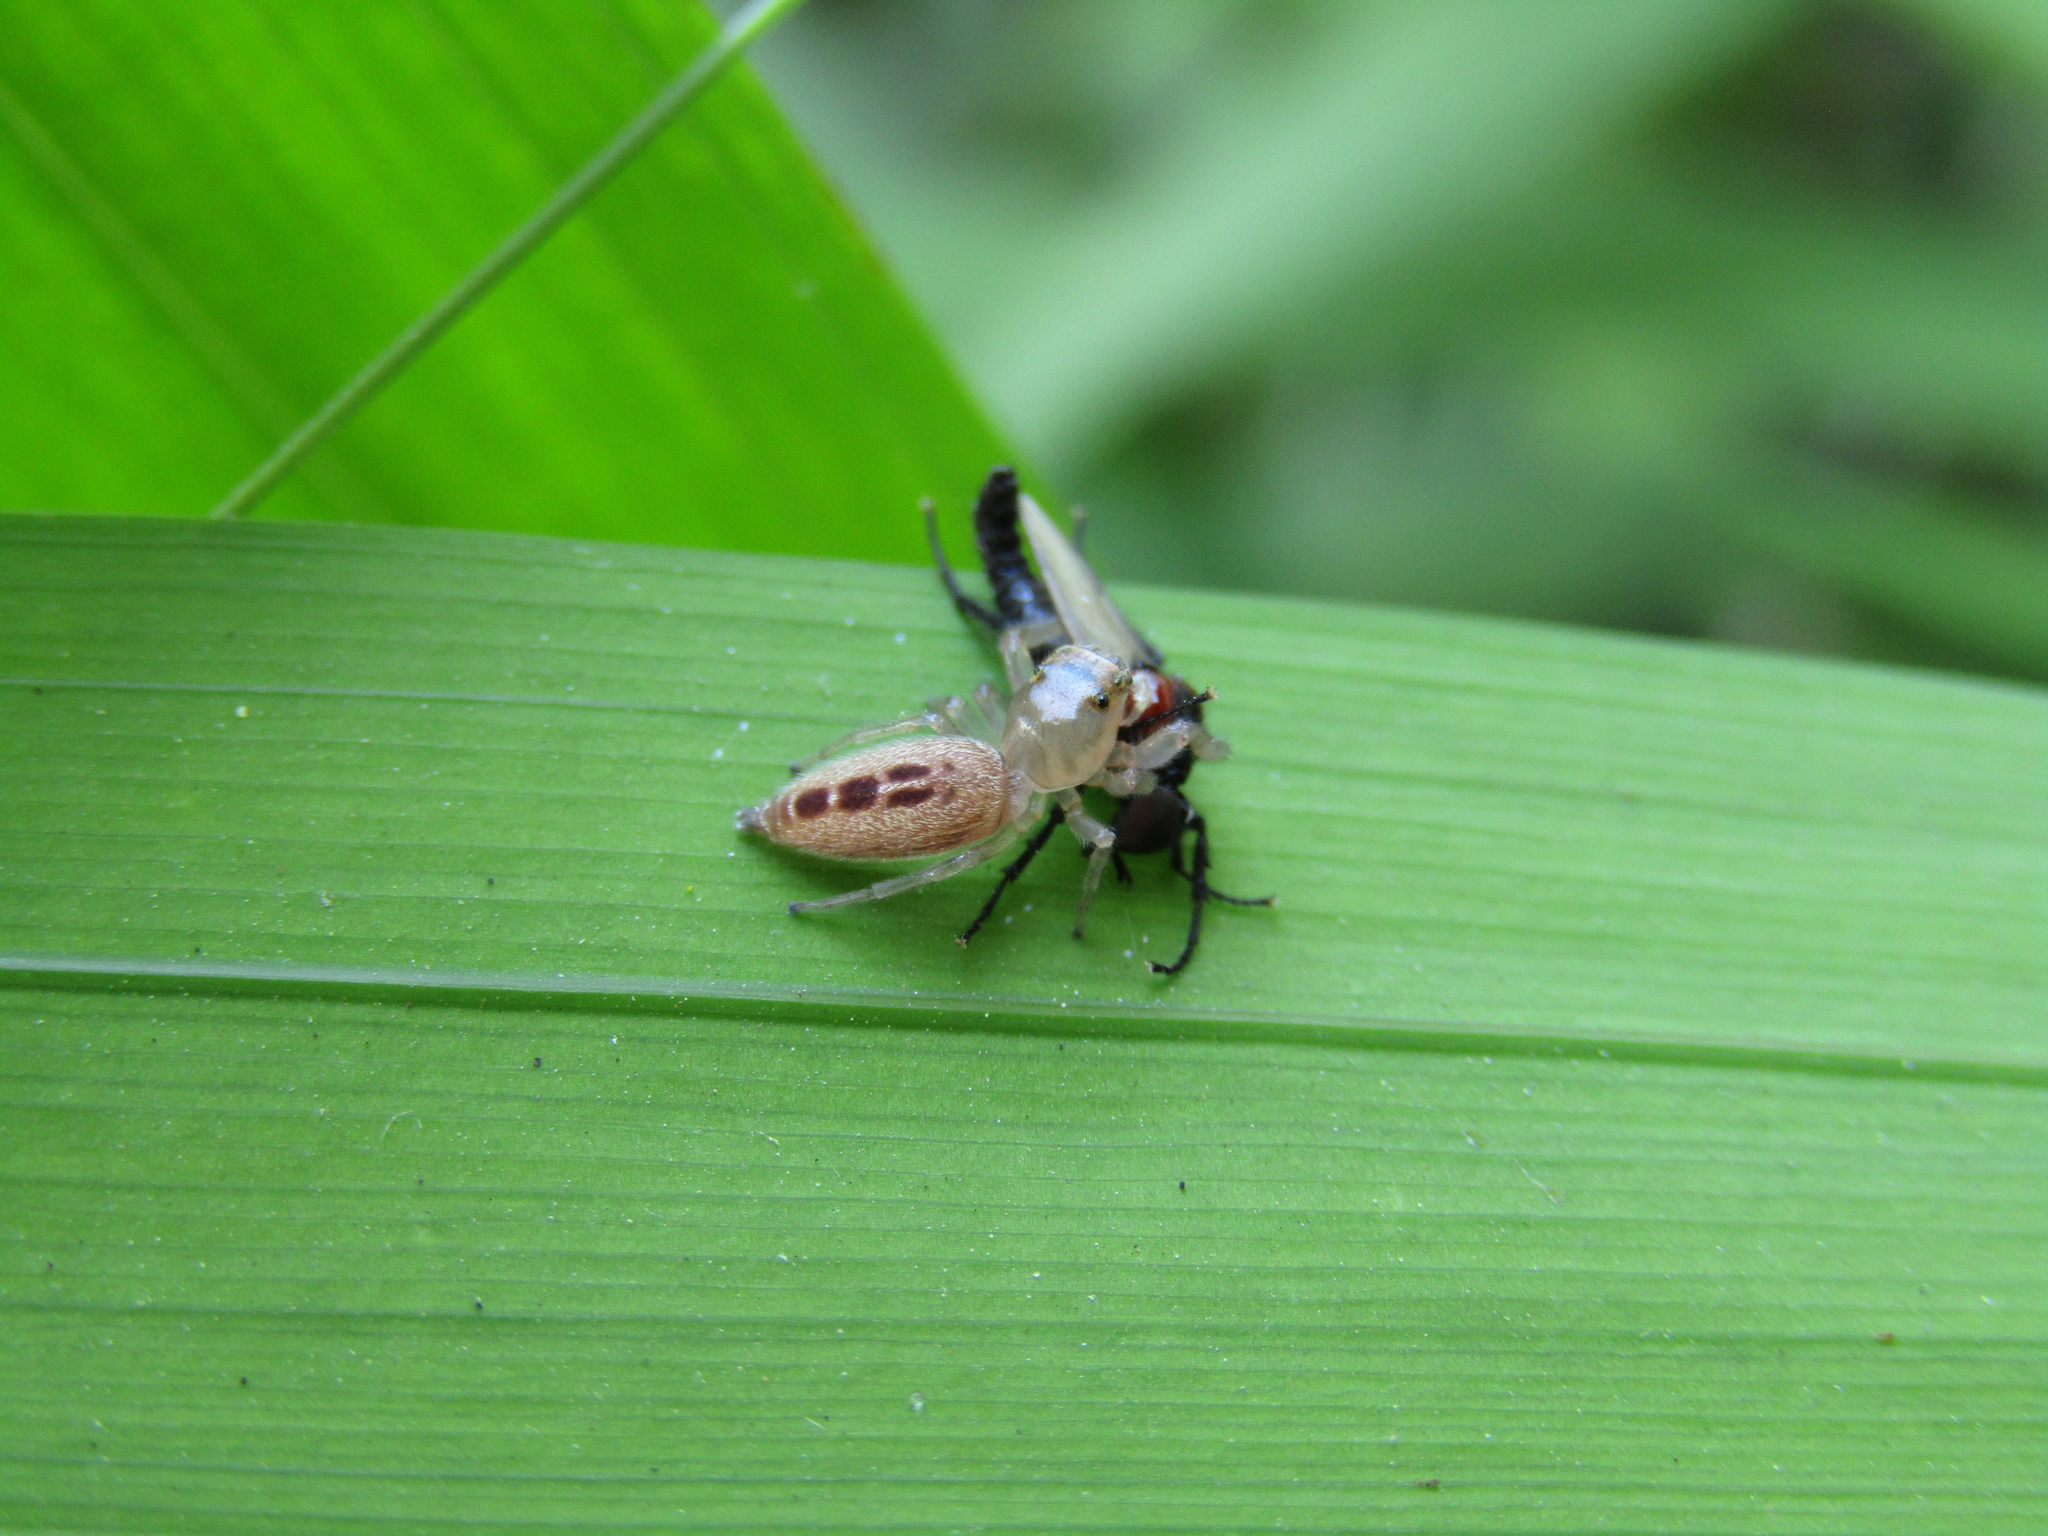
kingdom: Animalia
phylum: Arthropoda
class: Arachnida
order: Araneae
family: Salticidae
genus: Cotinusa
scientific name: Cotinusa vittata
